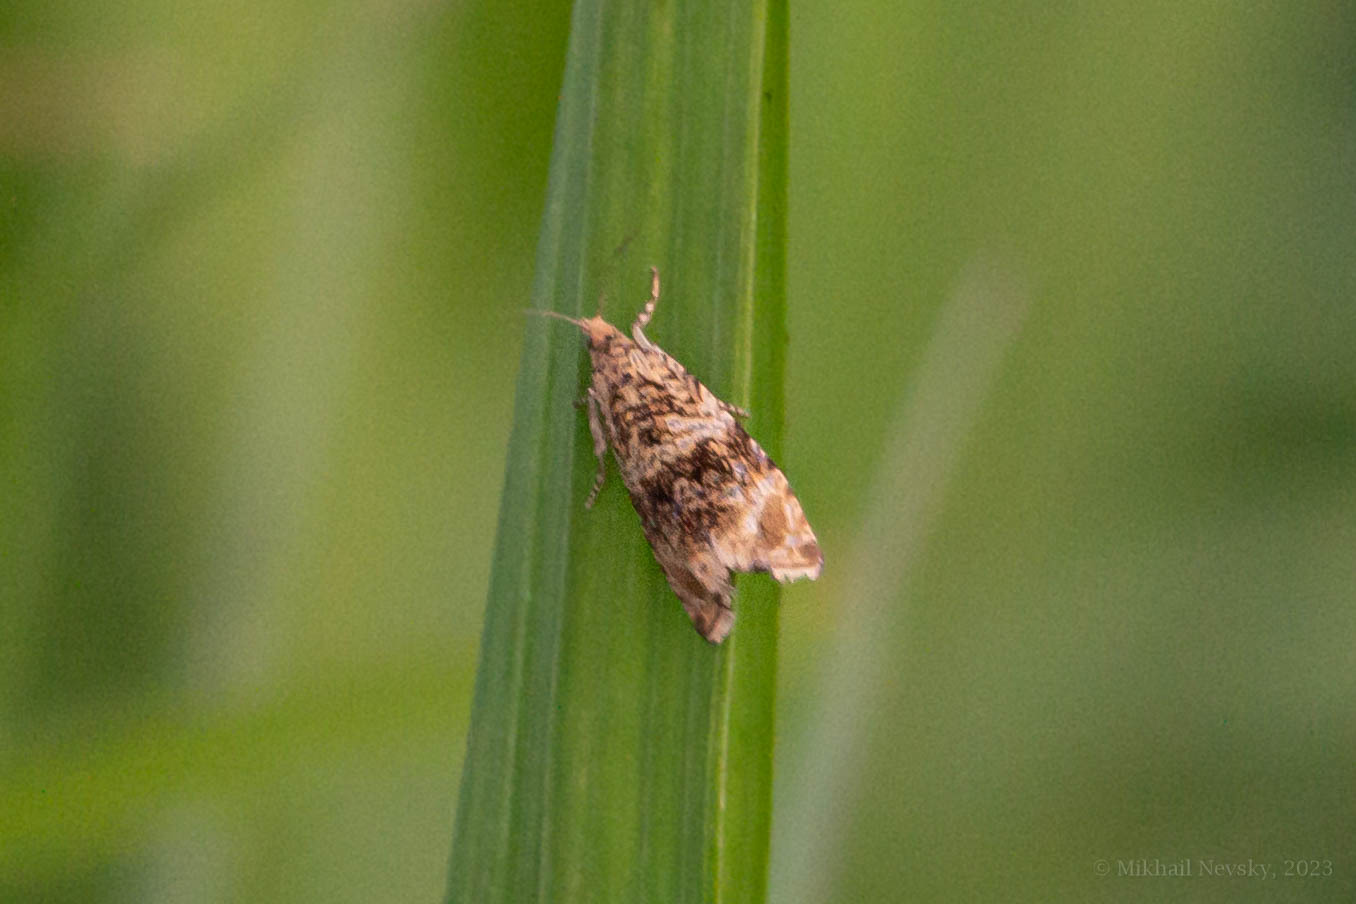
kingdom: Animalia
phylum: Arthropoda
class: Insecta
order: Lepidoptera
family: Tortricidae
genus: Syricoris
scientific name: Syricoris lacunana
